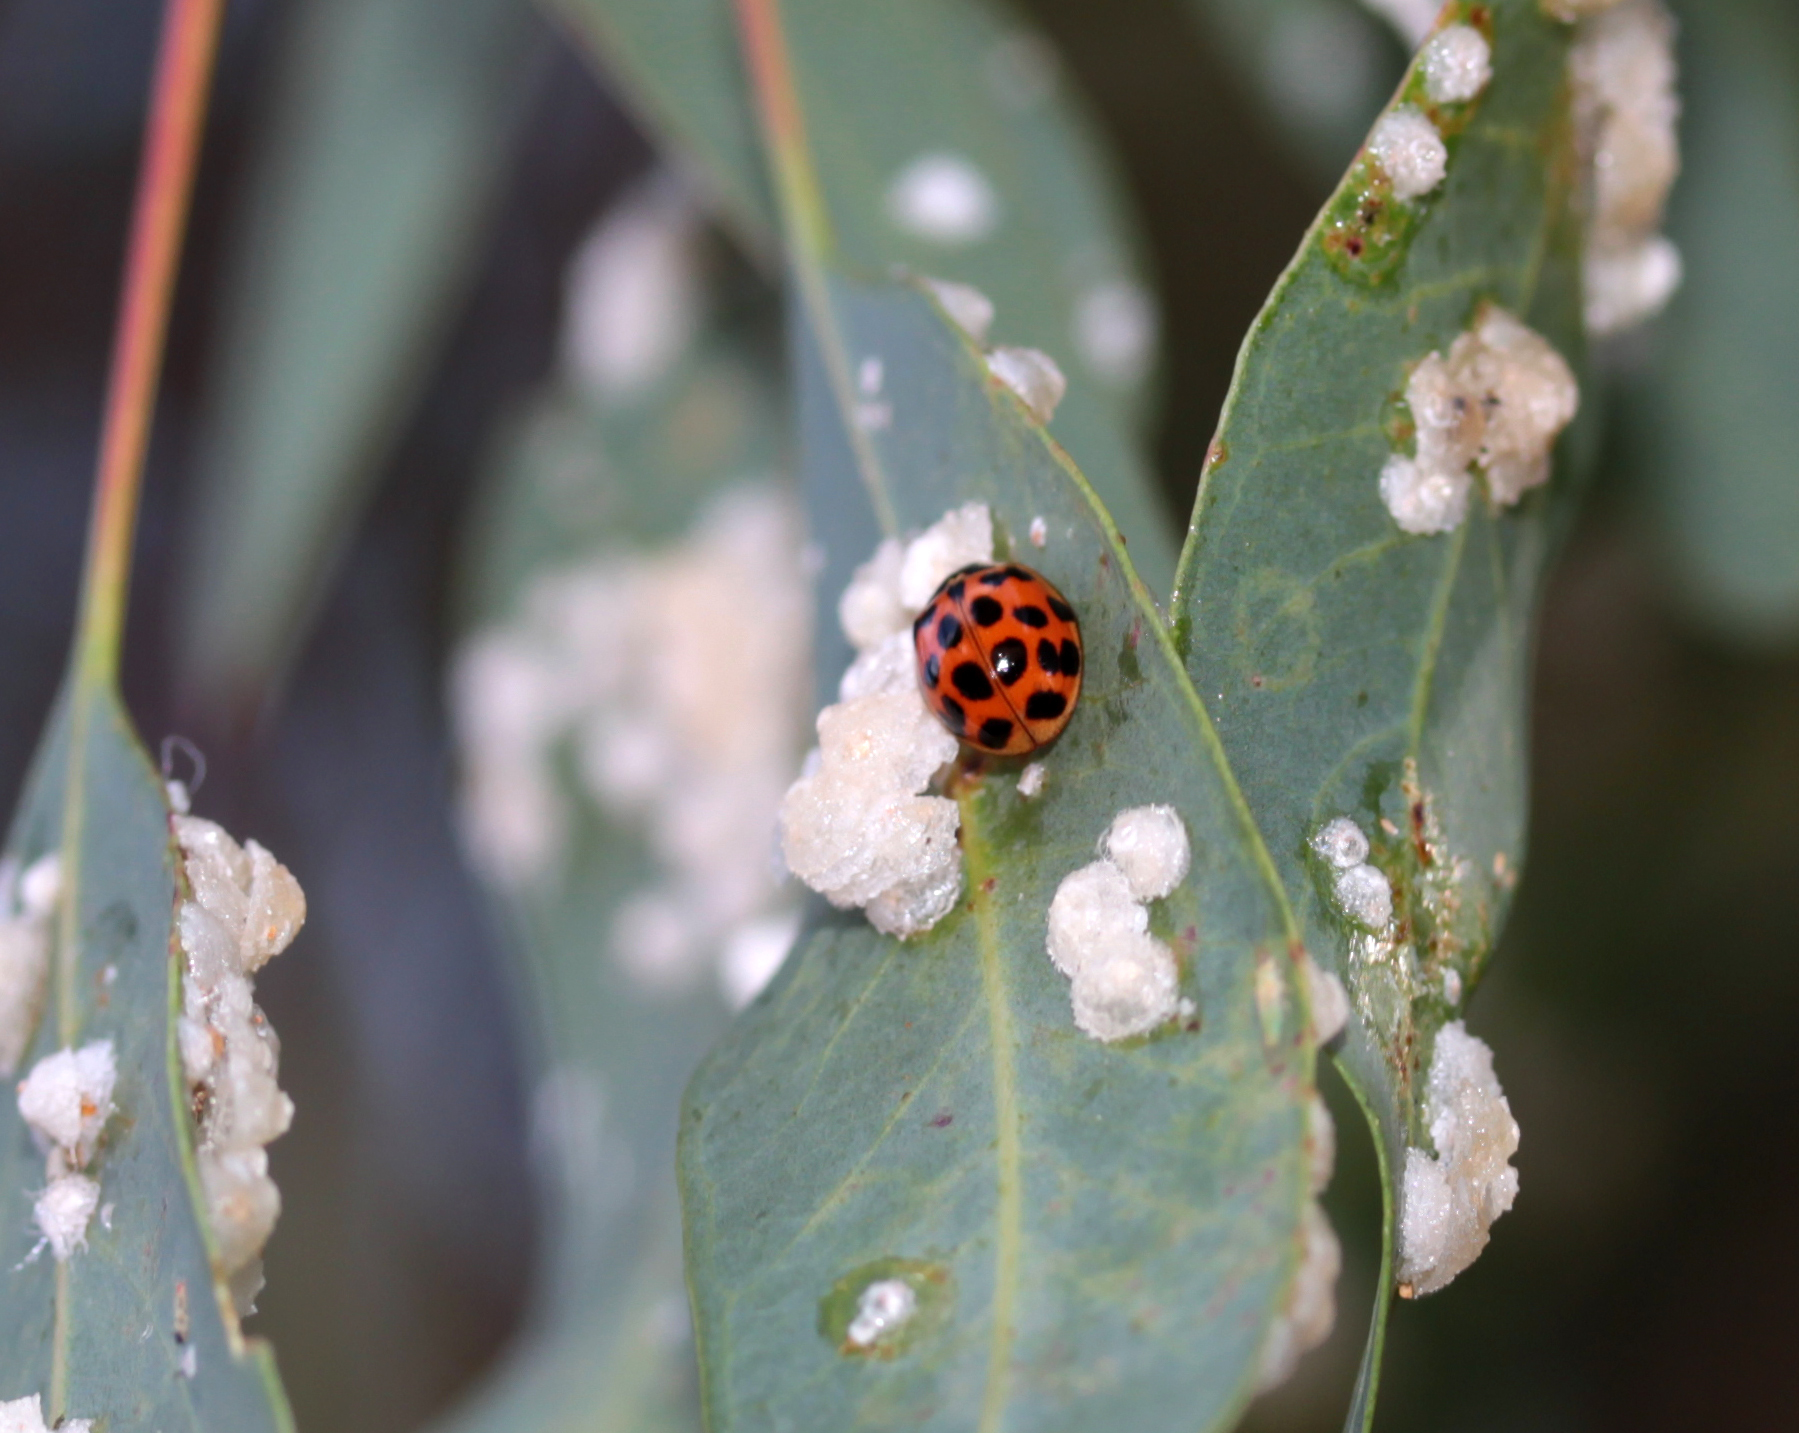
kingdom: Animalia
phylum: Arthropoda
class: Insecta
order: Coleoptera
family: Coccinellidae
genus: Harmonia
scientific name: Harmonia axyridis
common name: Harlequin ladybird
